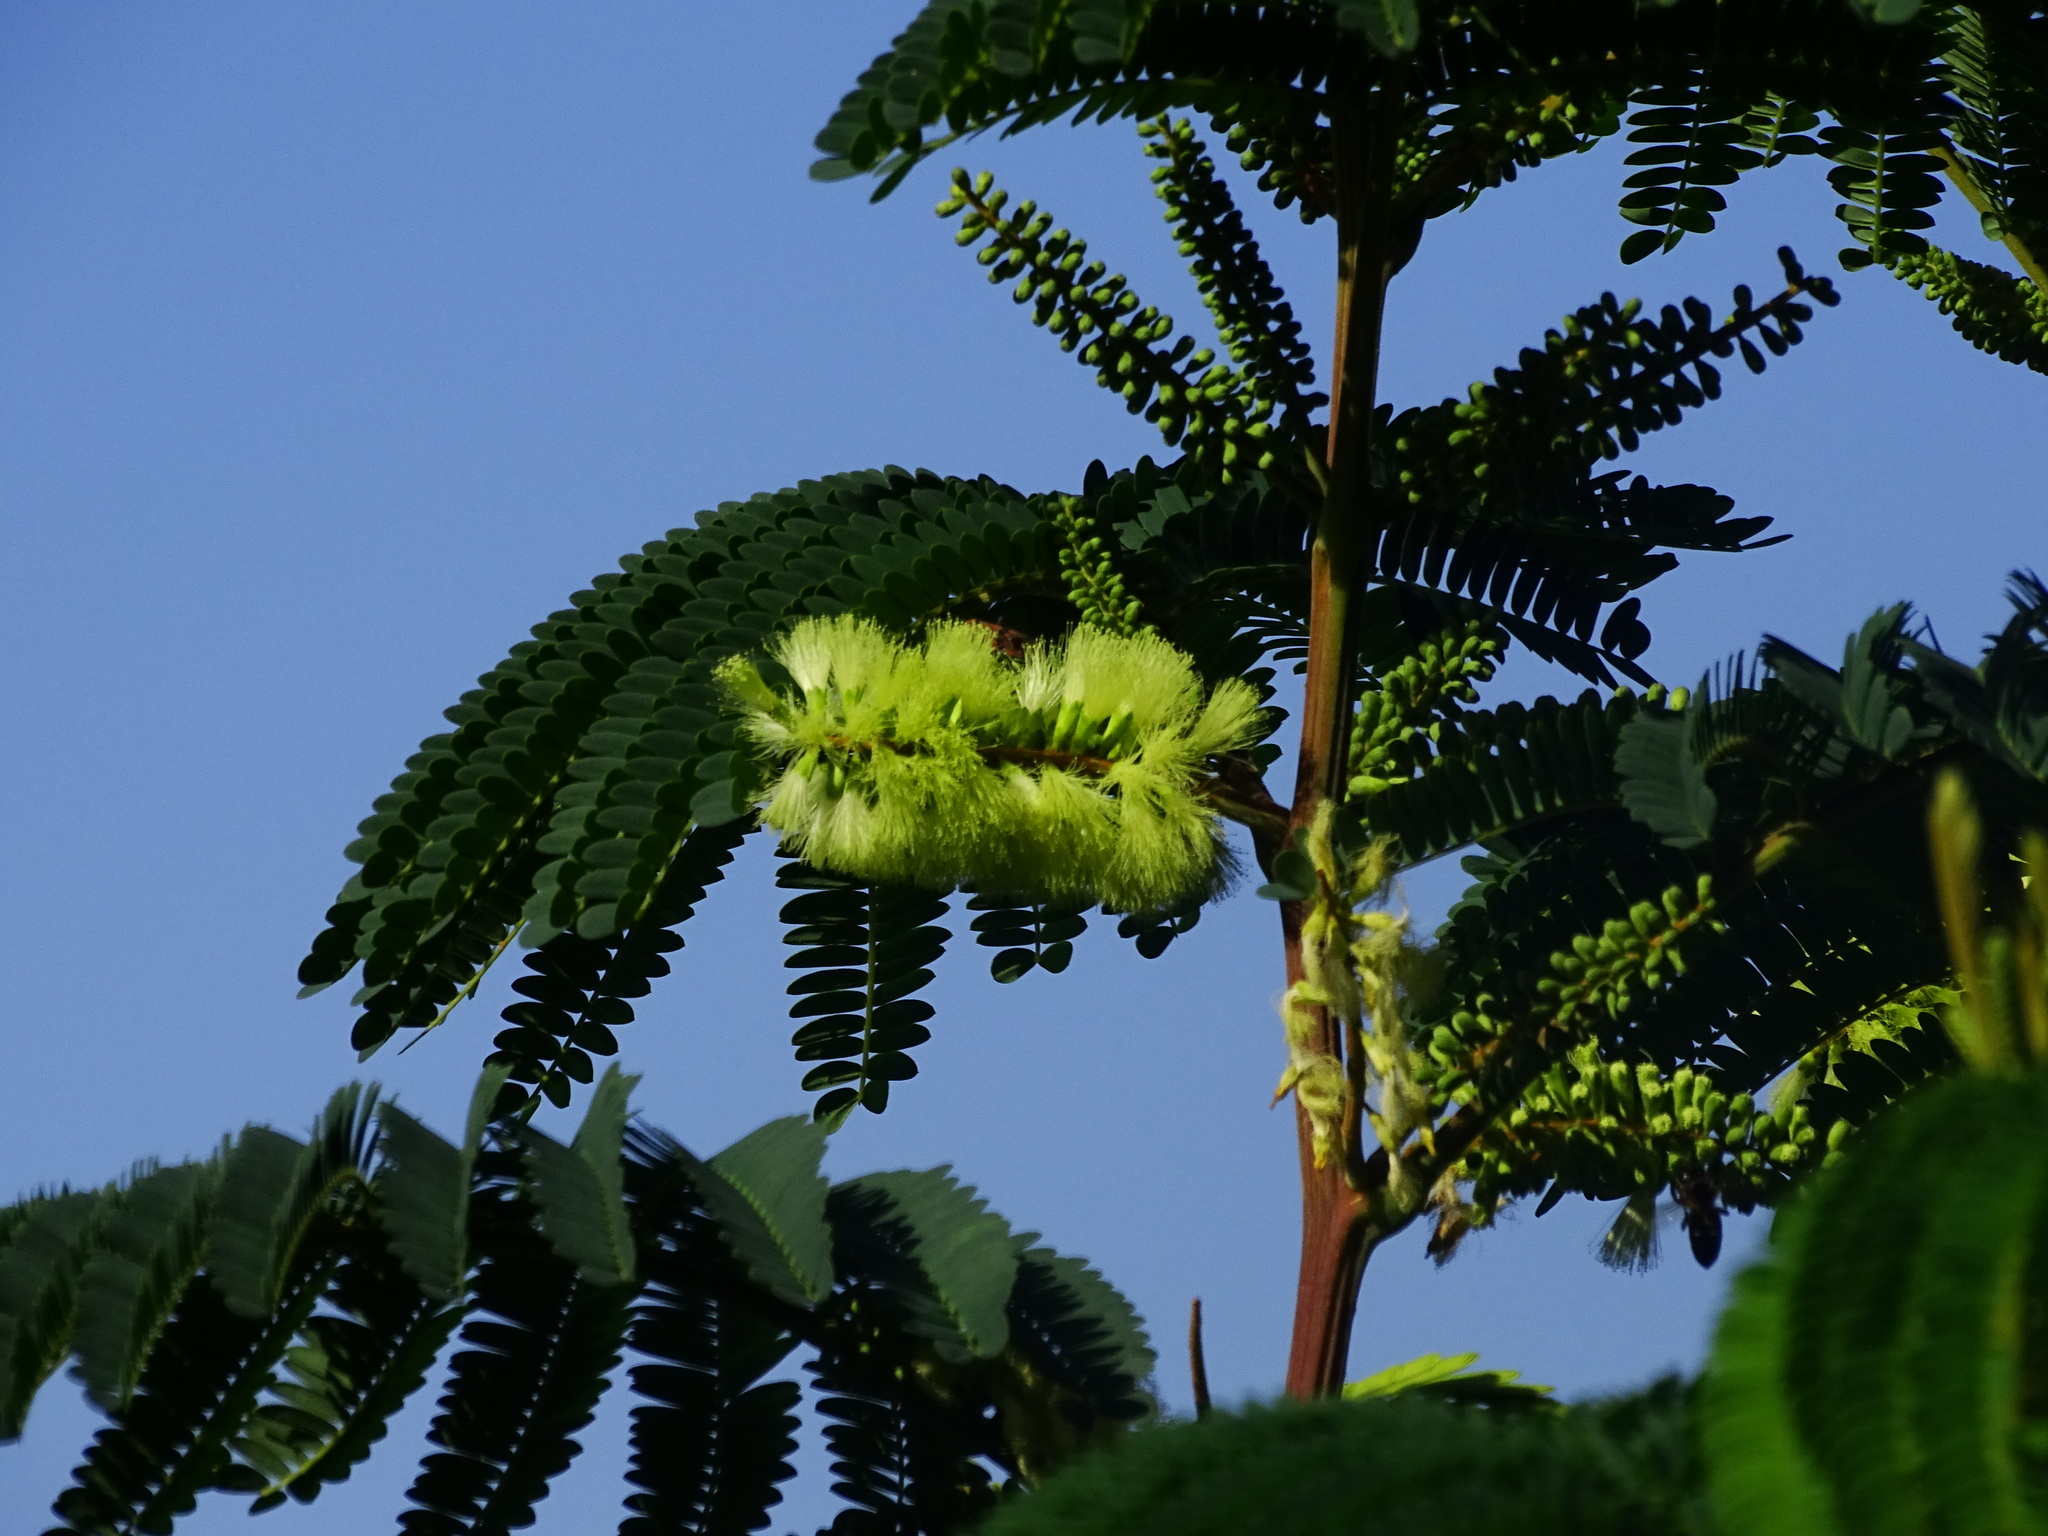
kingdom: Plantae
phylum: Tracheophyta
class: Magnoliopsida
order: Fabales
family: Fabaceae
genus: Paraserianthes
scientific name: Paraserianthes lophantha
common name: Plume albizia
